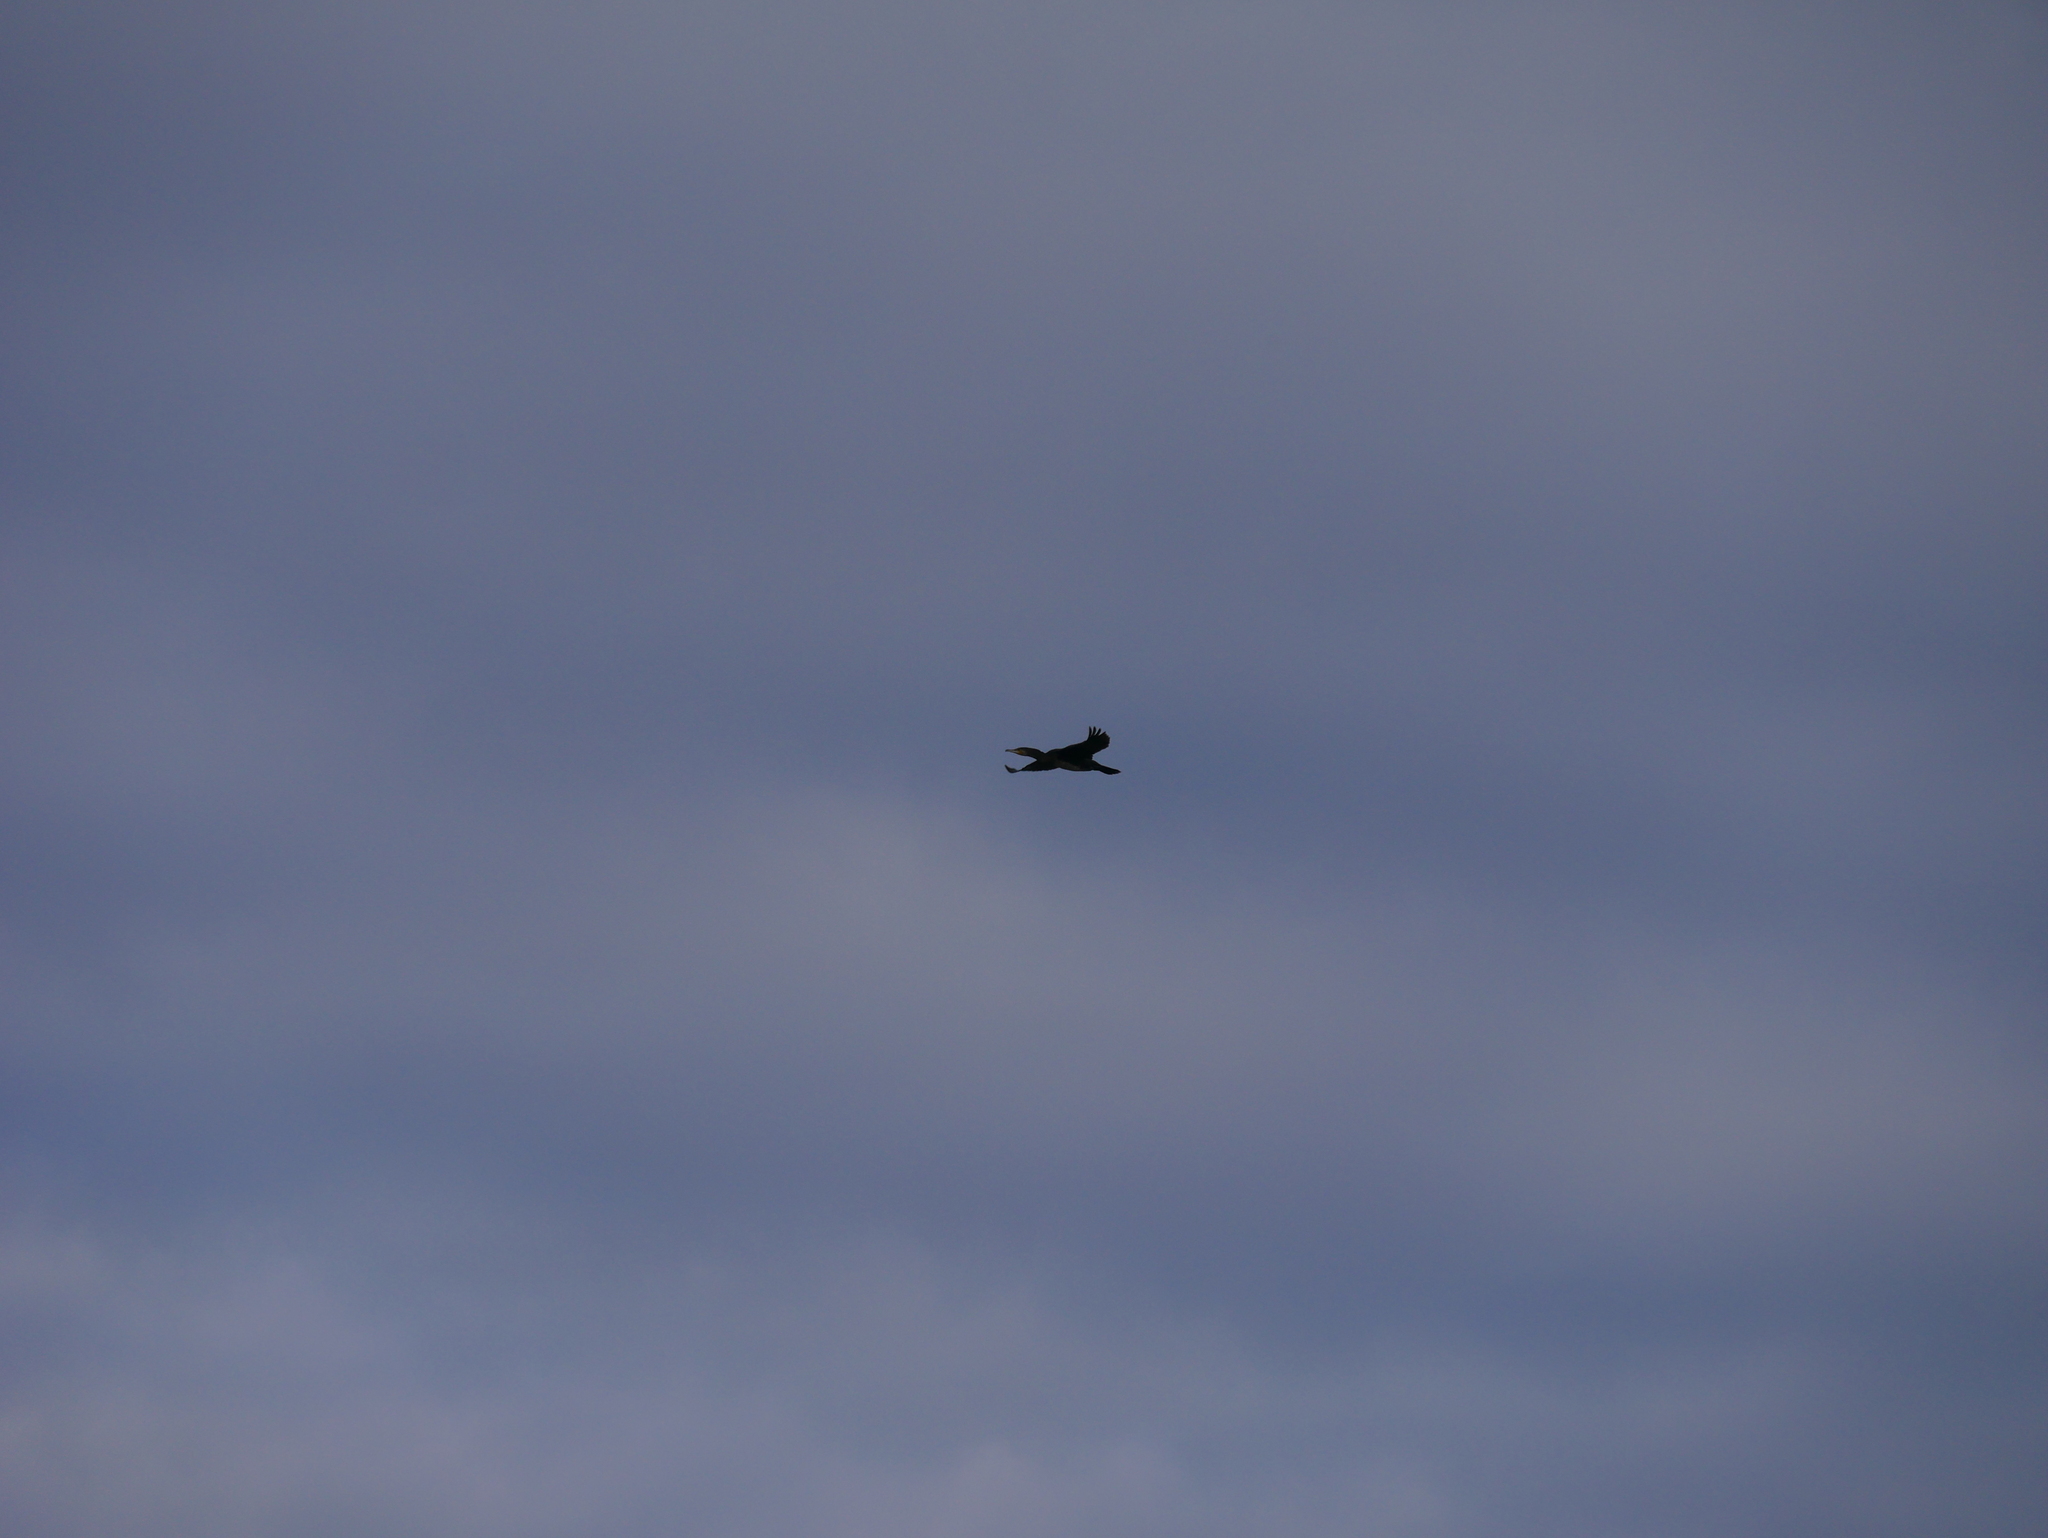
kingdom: Animalia
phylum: Chordata
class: Aves
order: Suliformes
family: Phalacrocoracidae
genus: Phalacrocorax
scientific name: Phalacrocorax carbo
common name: Great cormorant
